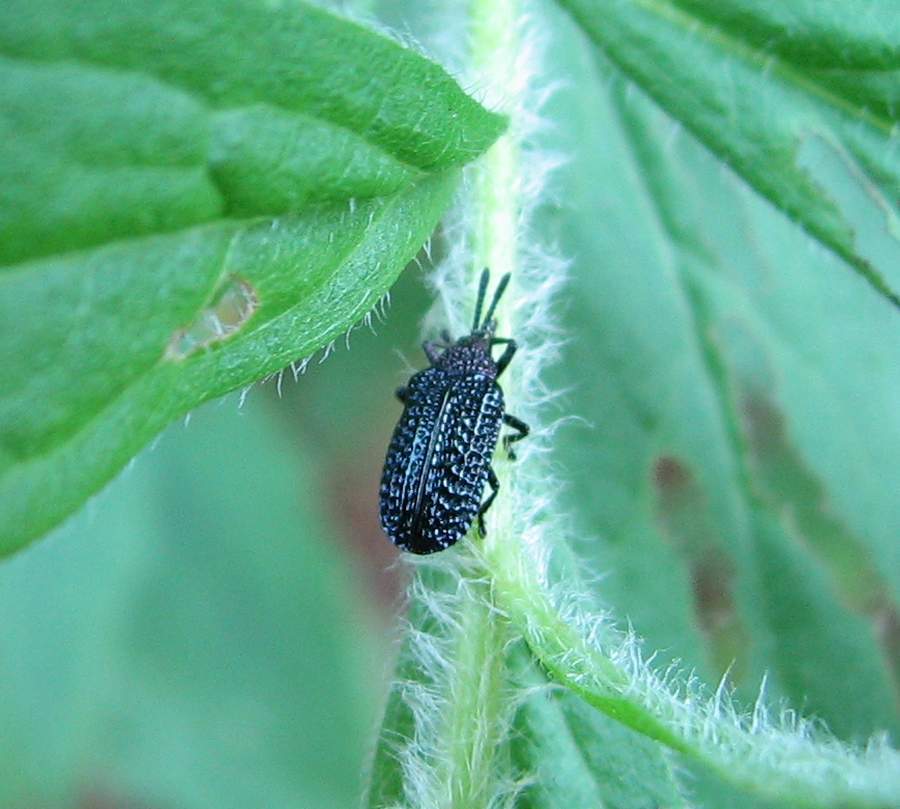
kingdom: Animalia
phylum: Arthropoda
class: Insecta
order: Coleoptera
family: Chrysomelidae
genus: Microrhopala
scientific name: Microrhopala excavata
